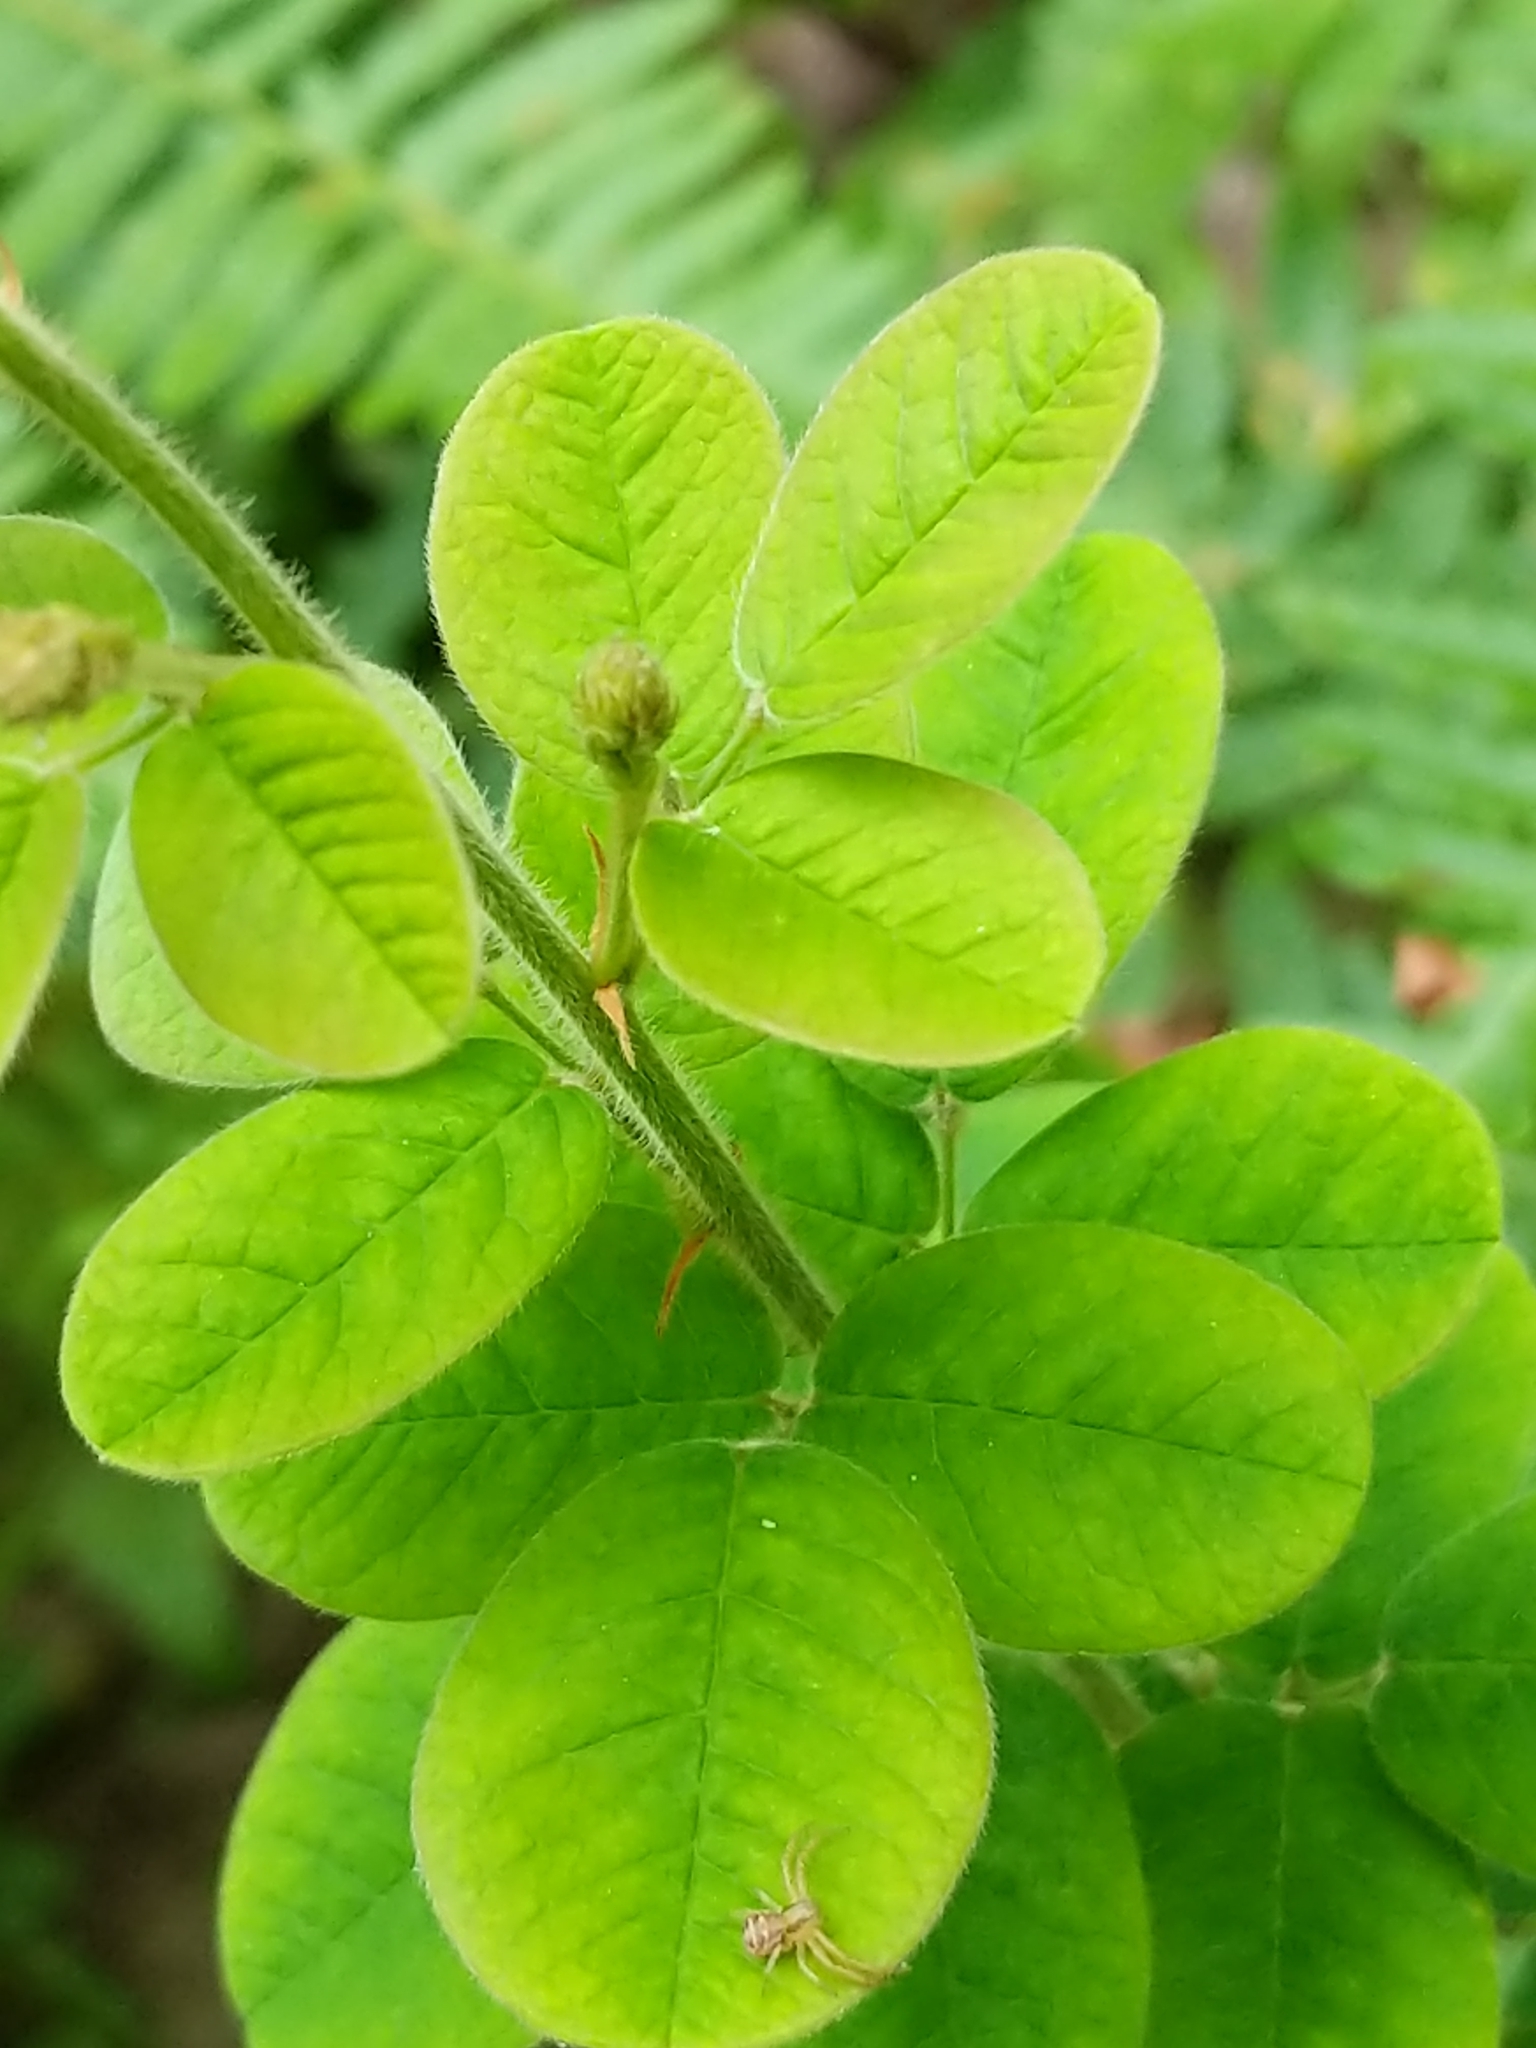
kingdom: Plantae
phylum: Tracheophyta
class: Magnoliopsida
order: Fabales
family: Fabaceae
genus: Lespedeza
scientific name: Lespedeza hirta
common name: Hairy lespedeza
